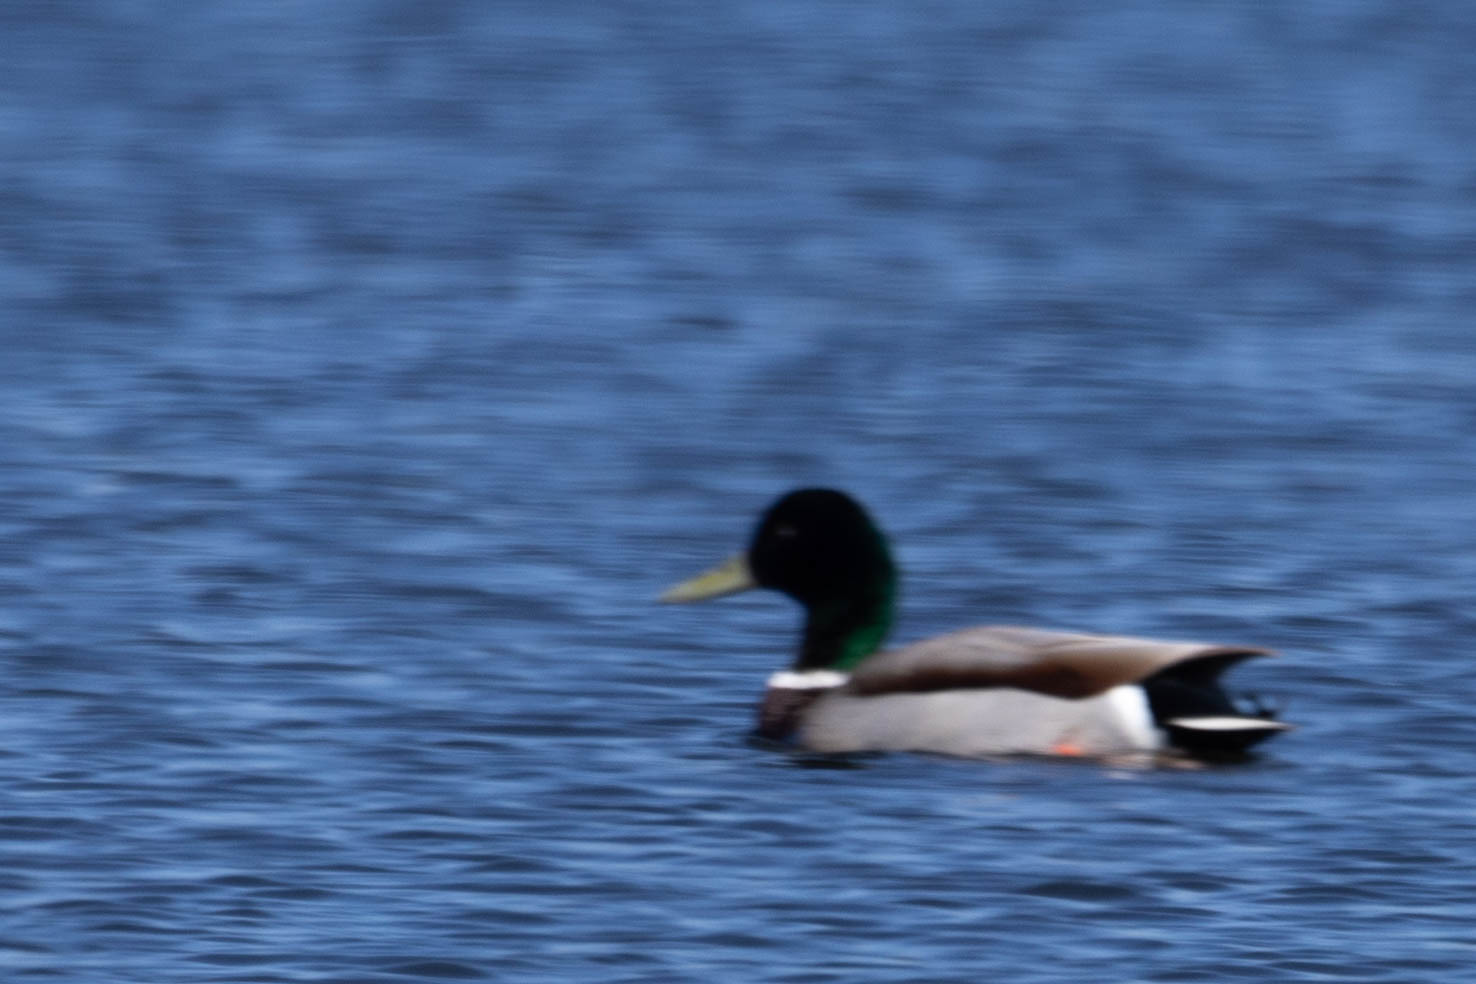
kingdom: Animalia
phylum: Chordata
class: Aves
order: Anseriformes
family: Anatidae
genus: Anas
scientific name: Anas platyrhynchos
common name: Mallard
